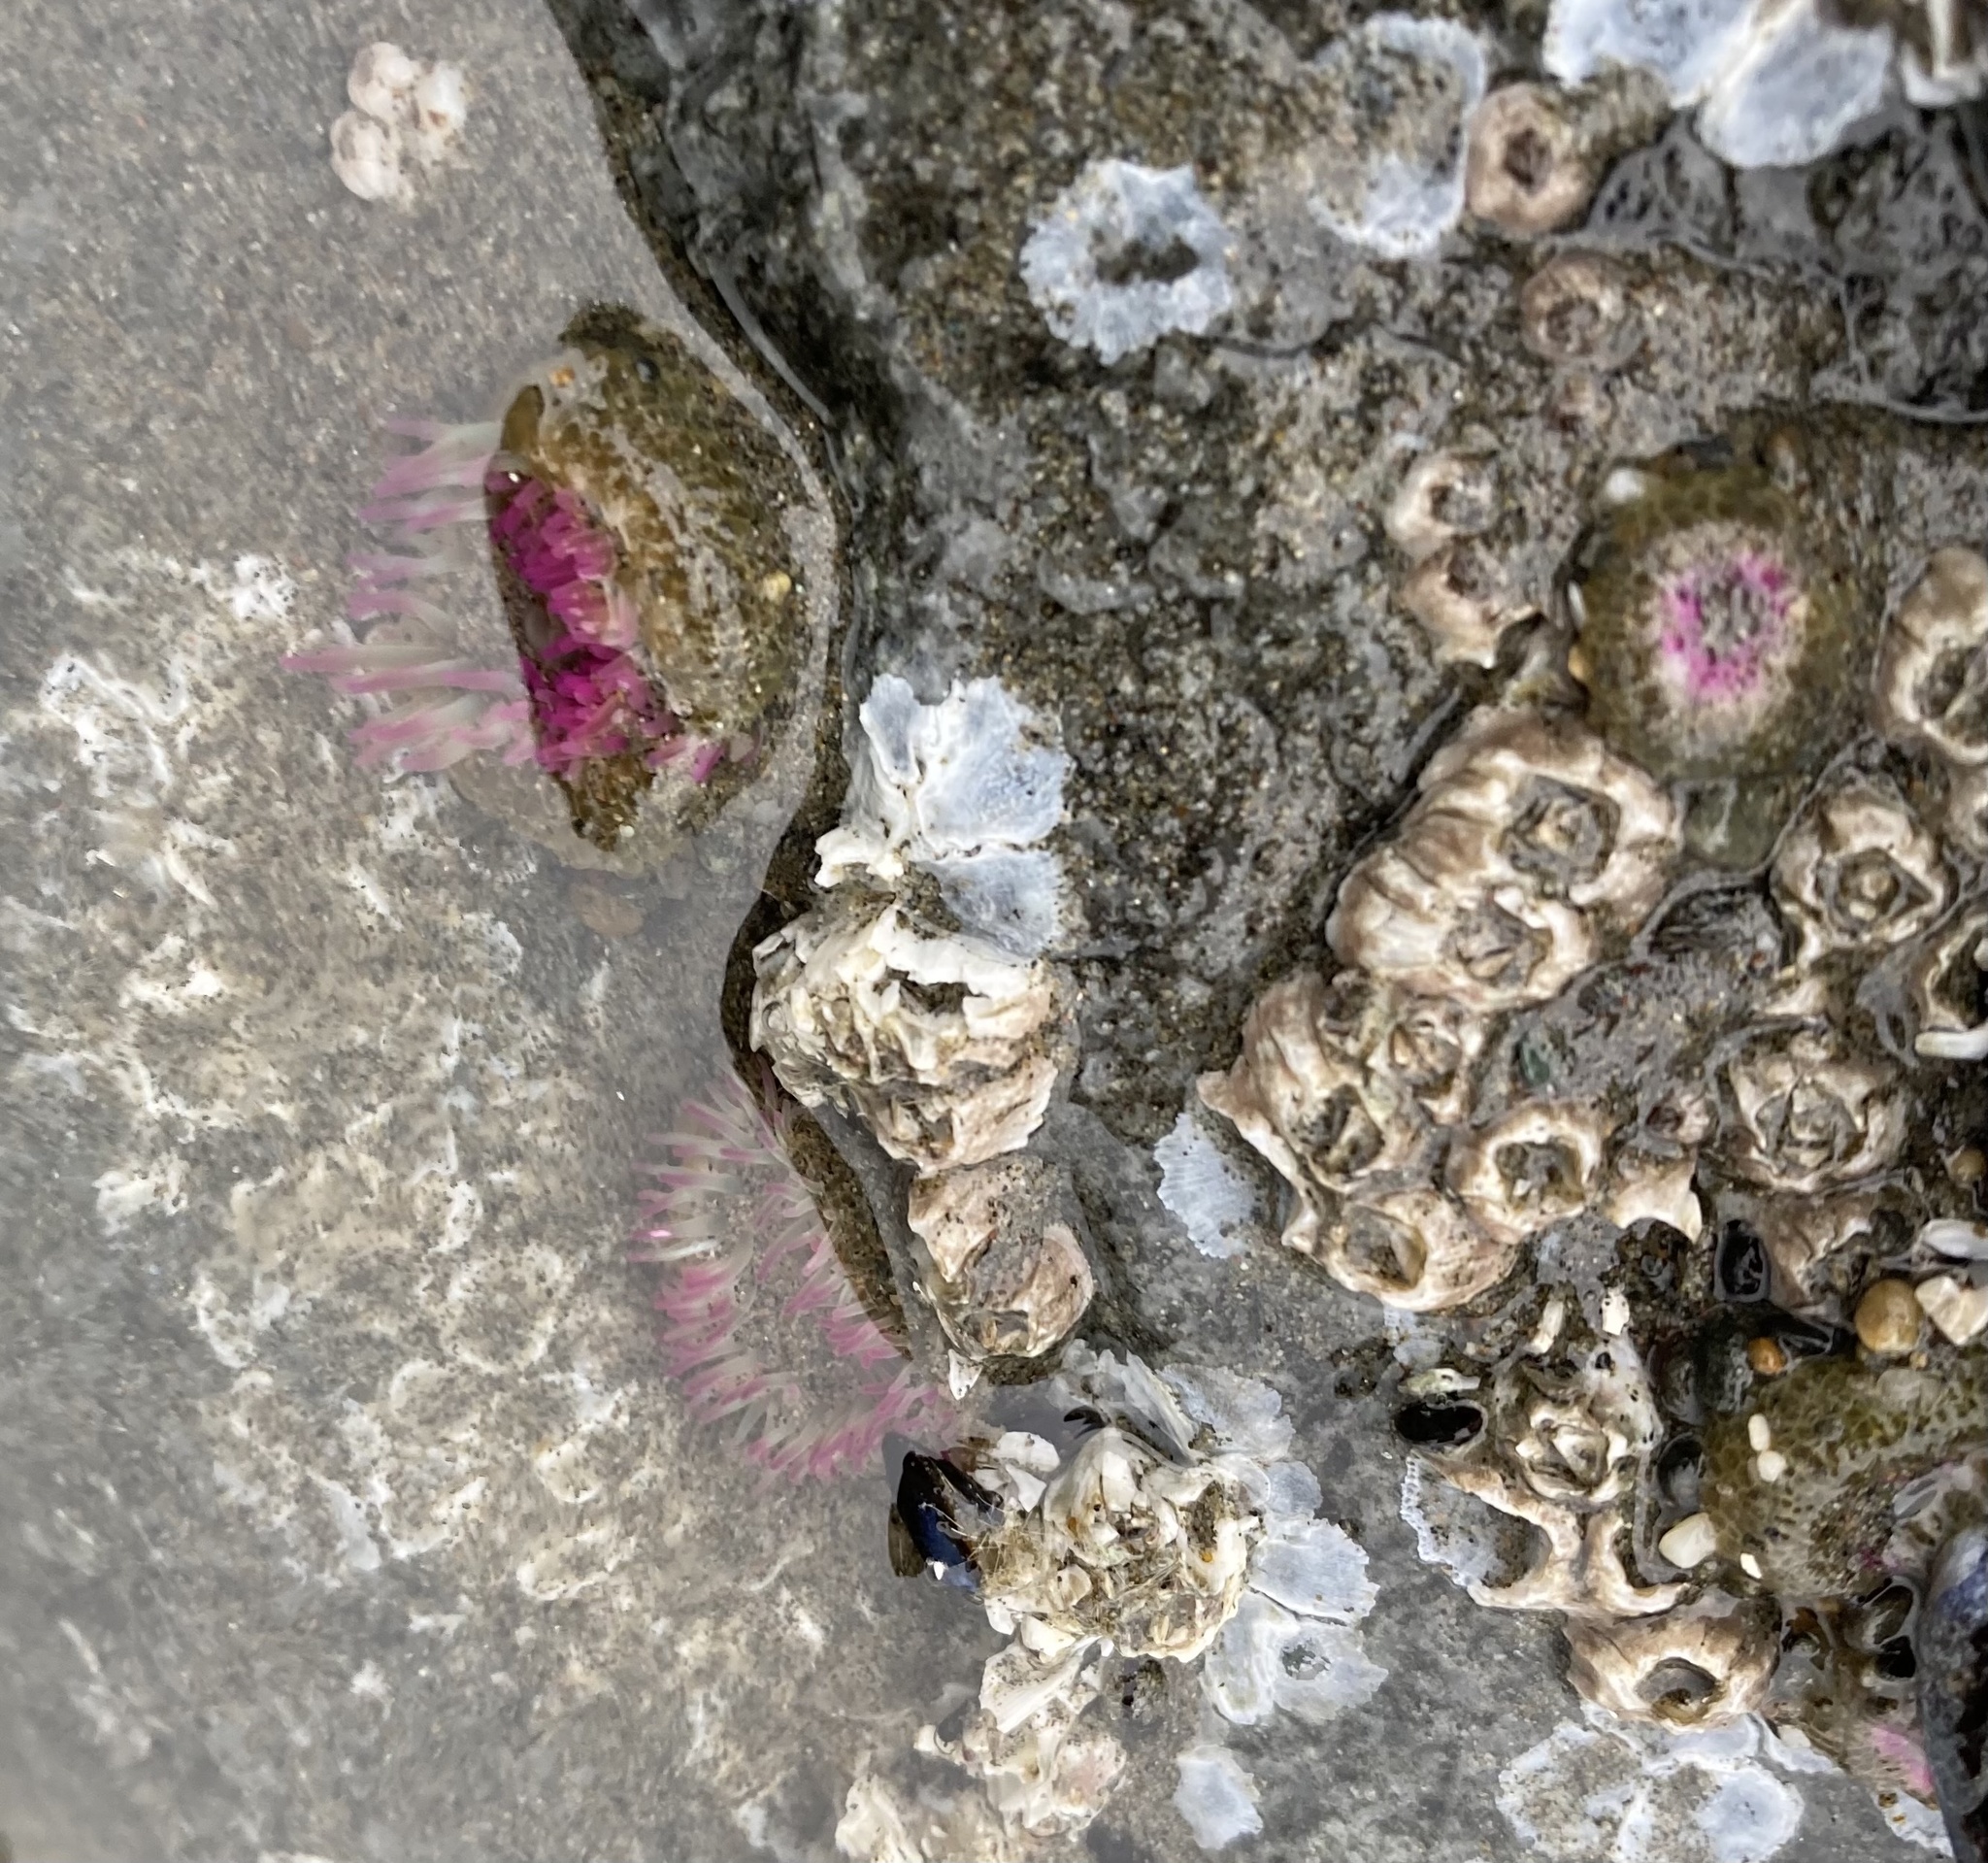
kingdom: Animalia
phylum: Cnidaria
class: Anthozoa
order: Actiniaria
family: Actiniidae
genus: Anthopleura
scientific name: Anthopleura elegantissima
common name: Clonal anemone
